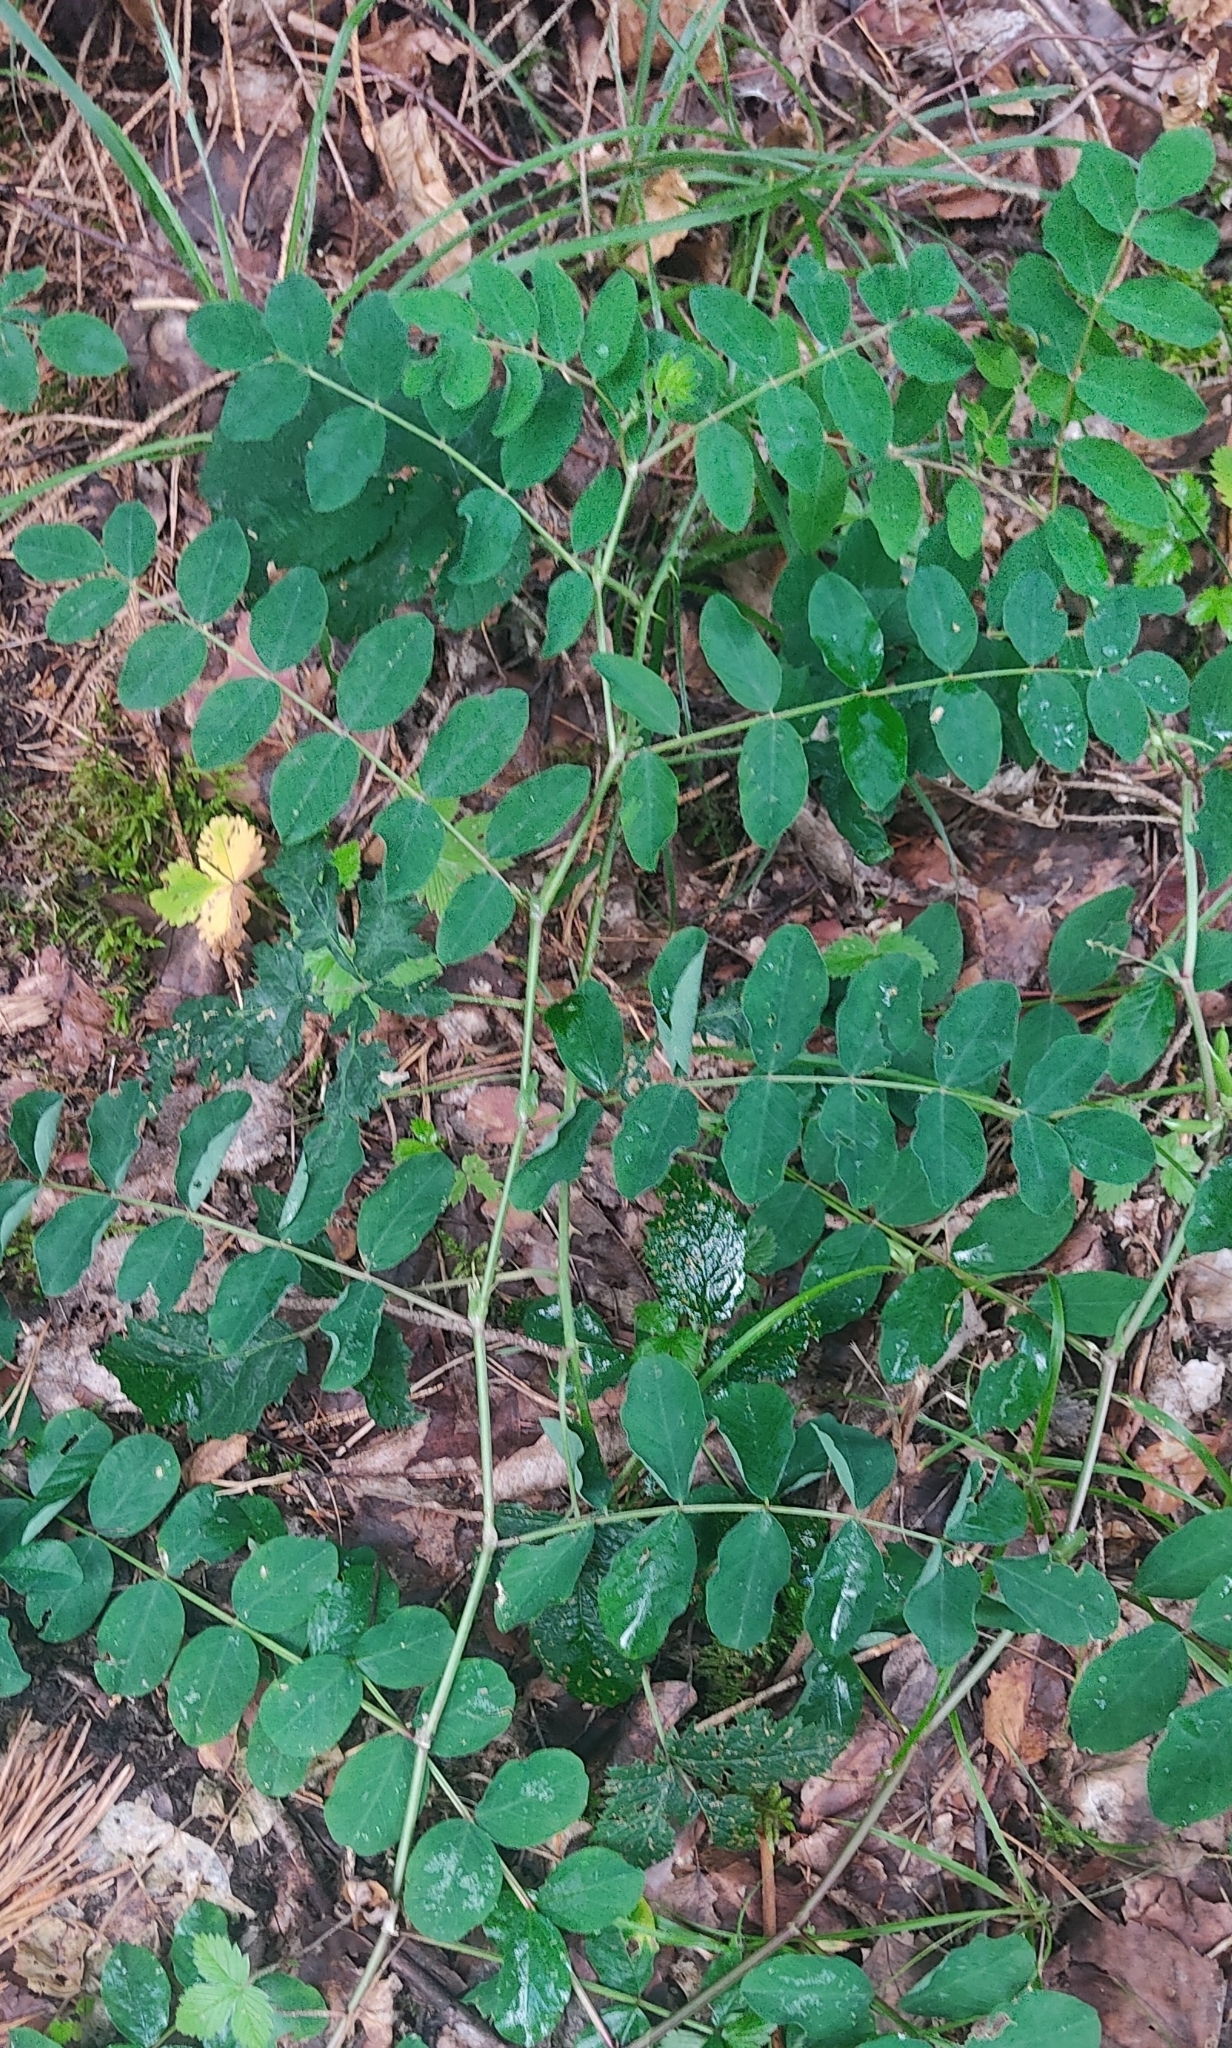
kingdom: Plantae
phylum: Tracheophyta
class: Magnoliopsida
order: Fabales
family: Fabaceae
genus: Astragalus
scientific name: Astragalus glycyphyllos
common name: Wild liquorice
